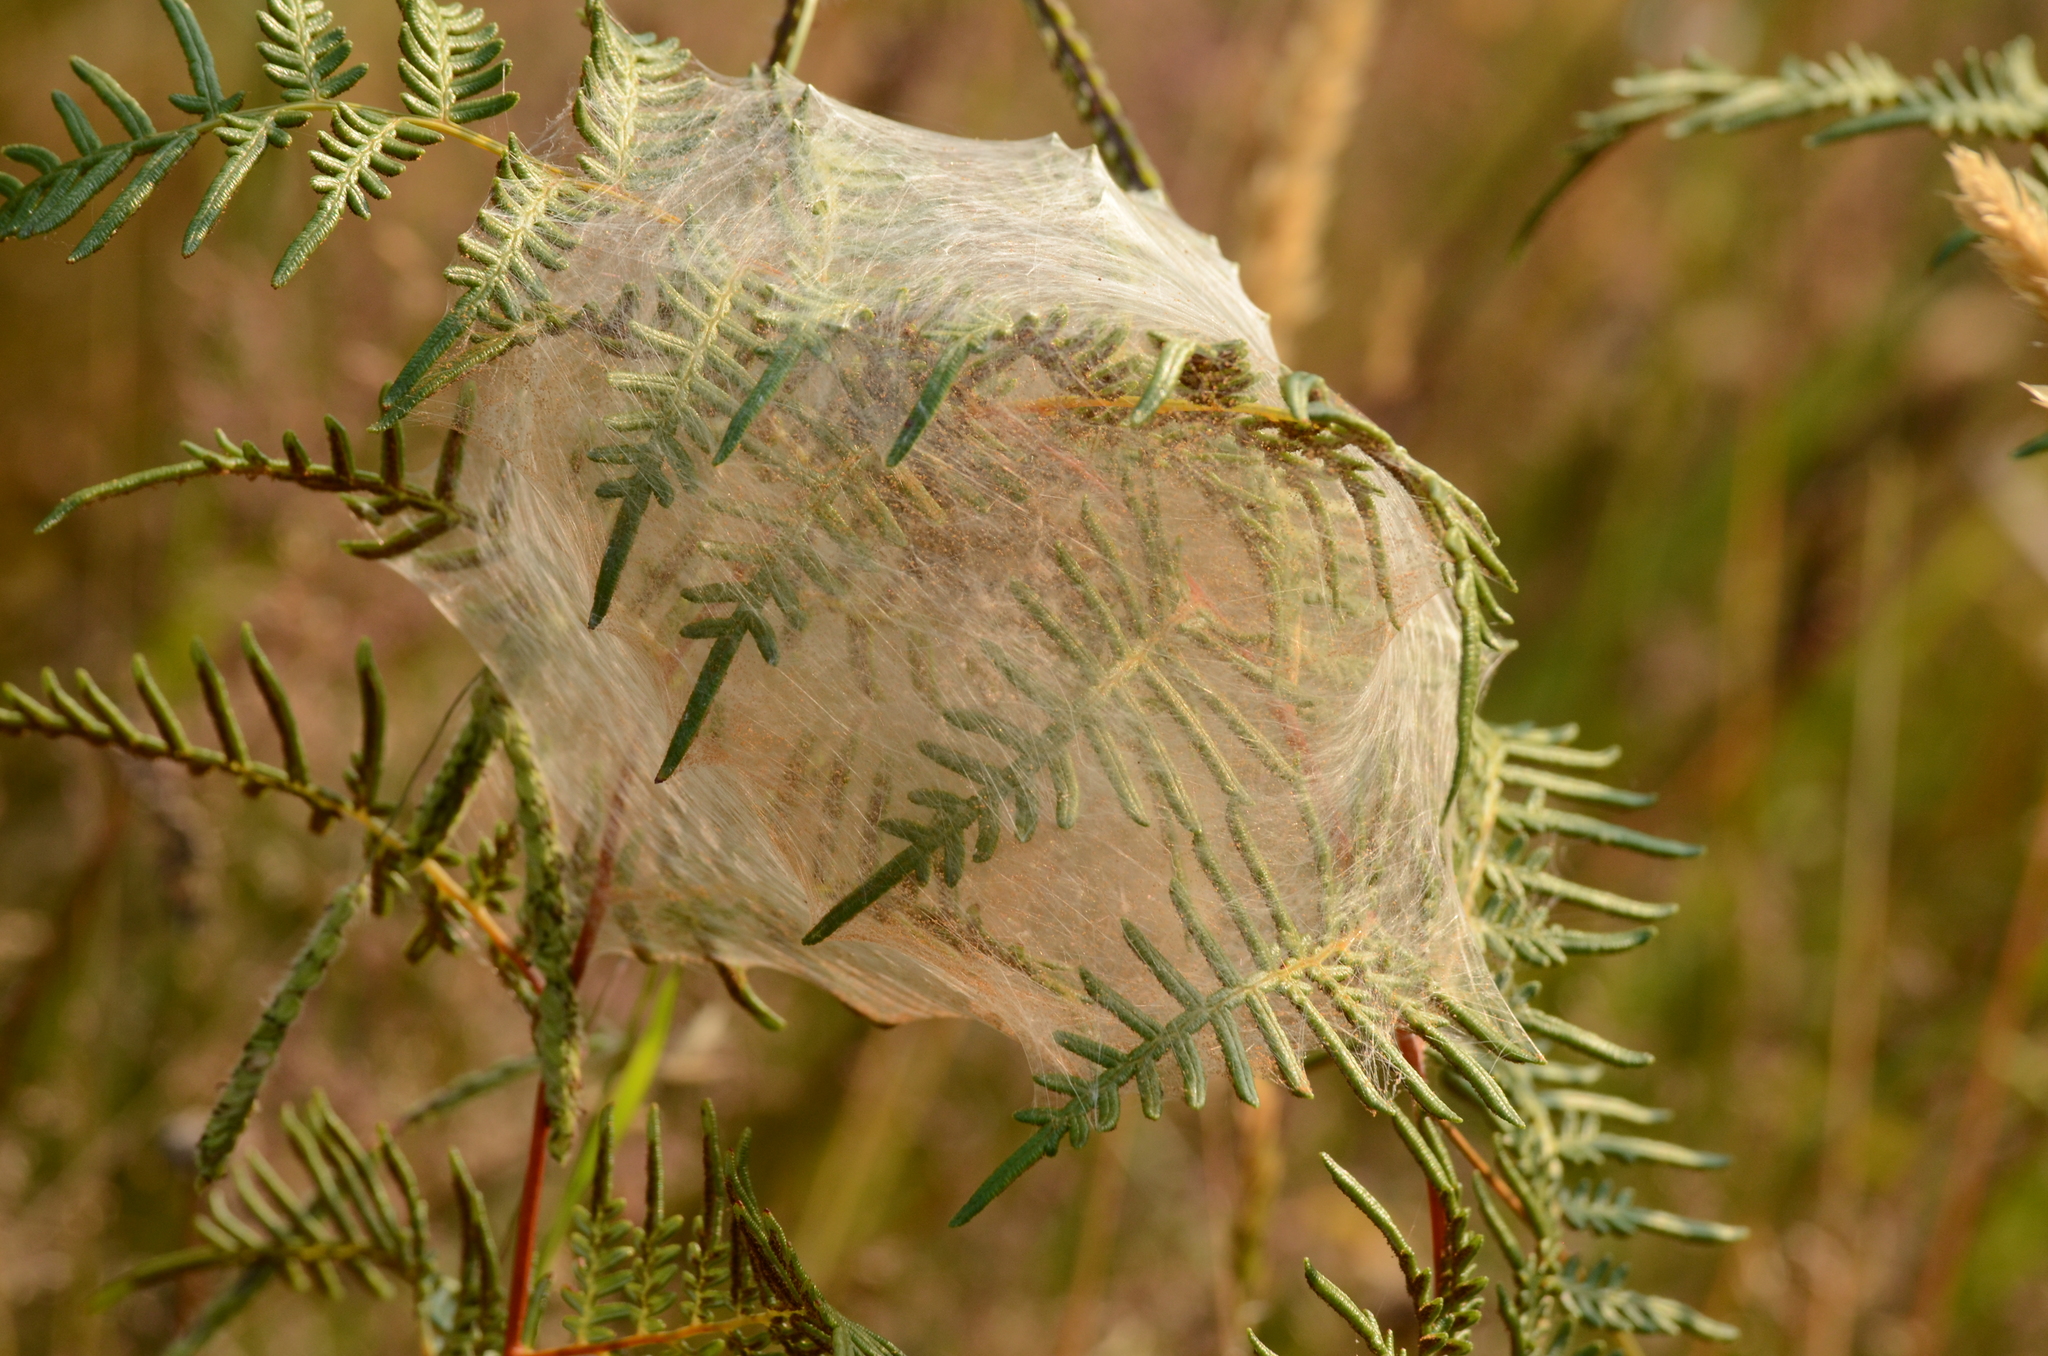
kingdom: Animalia
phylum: Arthropoda
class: Arachnida
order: Araneae
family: Pisauridae
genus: Dolomedes
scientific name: Dolomedes minor
